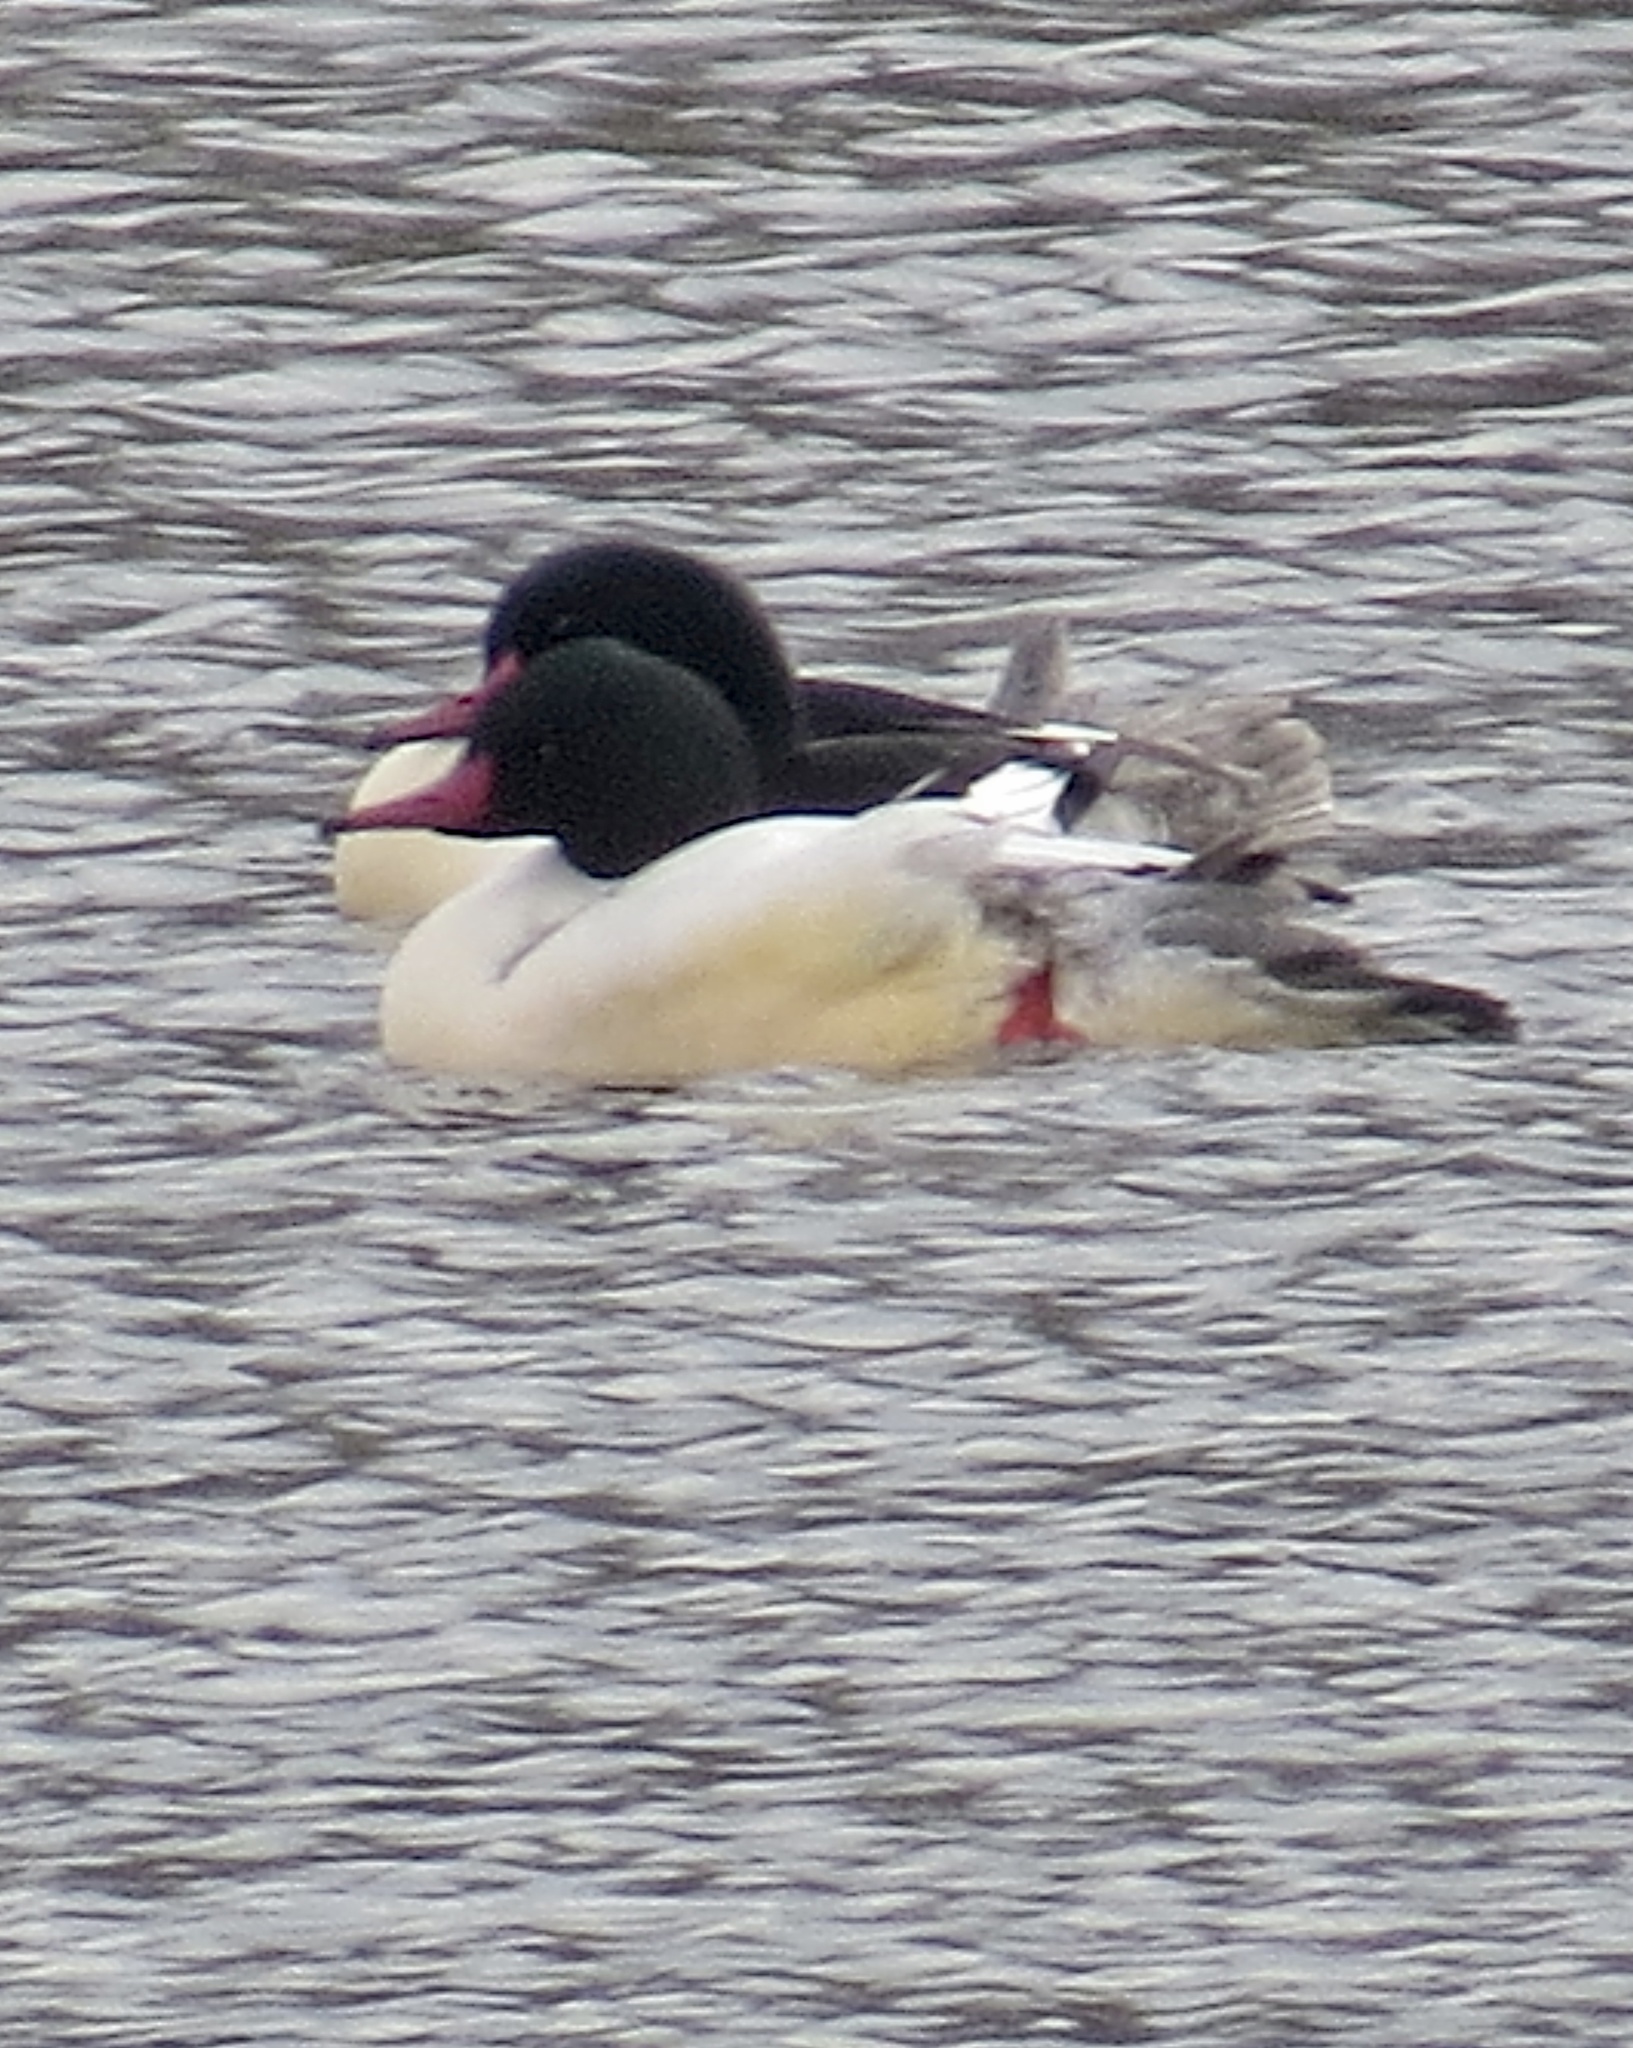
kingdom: Animalia
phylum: Chordata
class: Aves
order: Anseriformes
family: Anatidae
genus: Mergus
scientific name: Mergus merganser
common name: Common merganser
